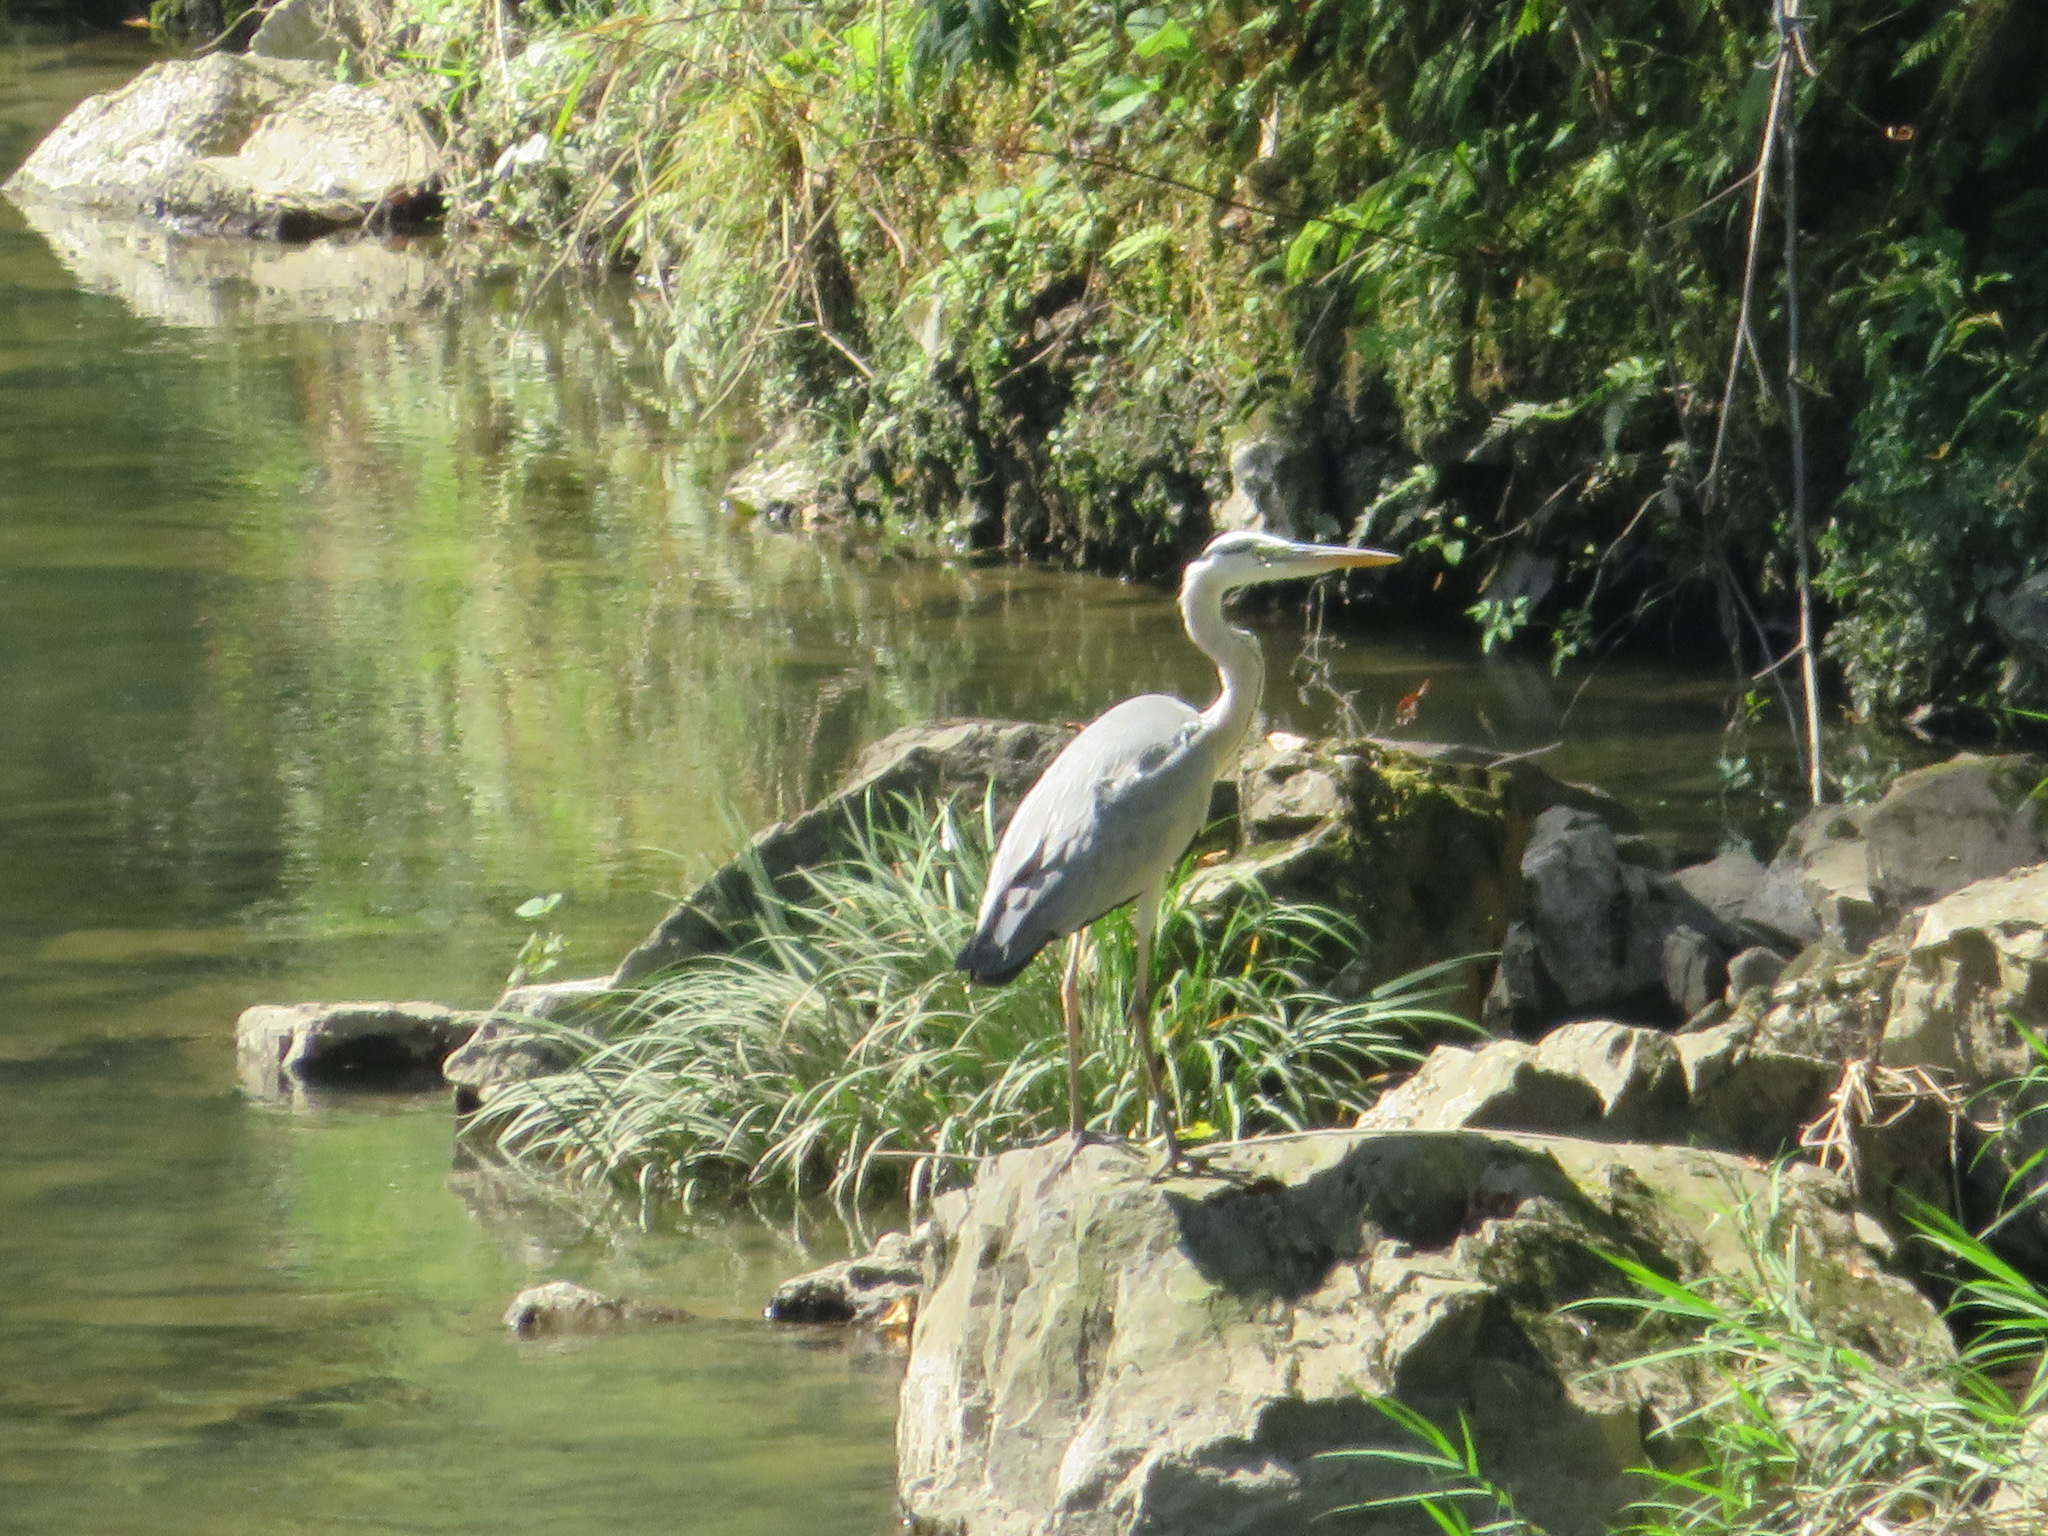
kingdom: Animalia
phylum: Chordata
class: Aves
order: Pelecaniformes
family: Ardeidae
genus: Ardea
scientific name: Ardea cinerea
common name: Grey heron
